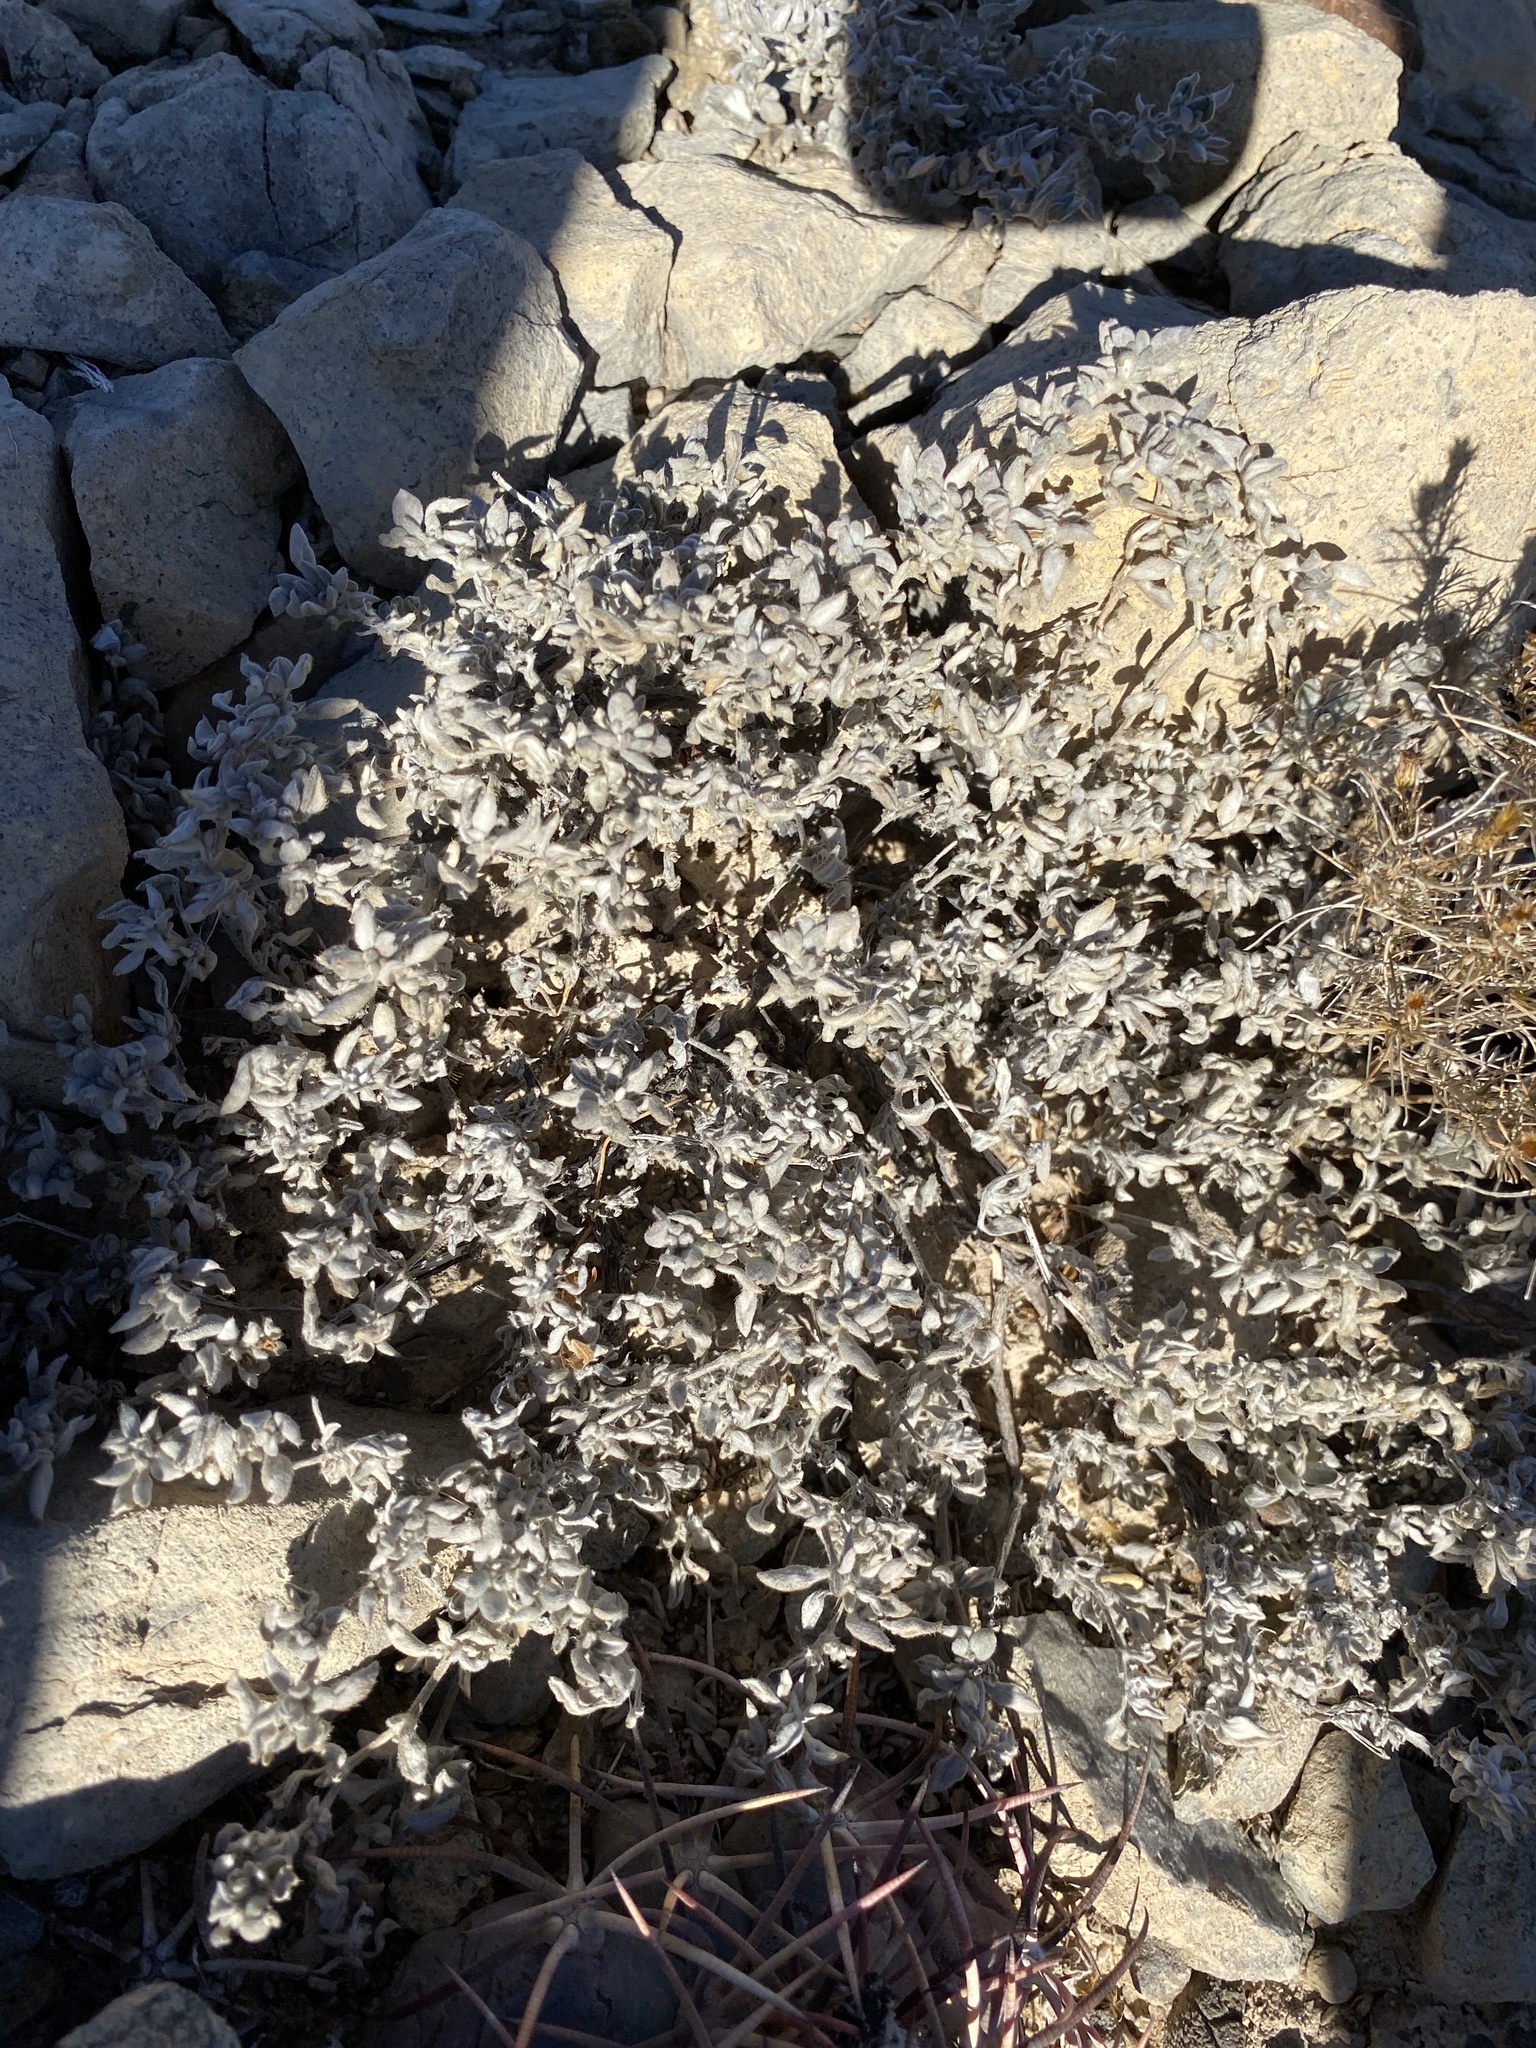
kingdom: Plantae
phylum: Tracheophyta
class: Magnoliopsida
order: Boraginales
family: Ehretiaceae
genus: Tiquilia
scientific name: Tiquilia canescens
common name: Hairy tiquilia
